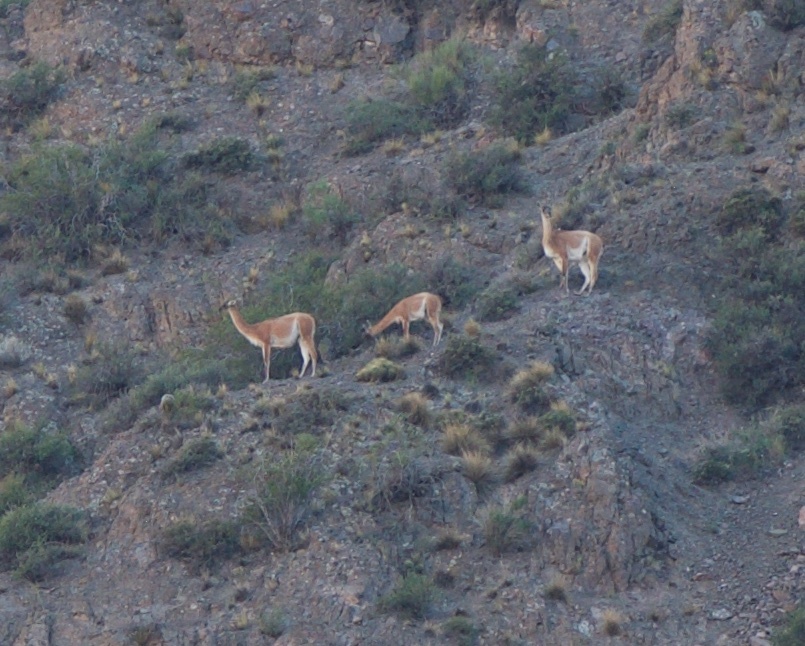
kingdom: Animalia
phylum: Chordata
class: Mammalia
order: Artiodactyla
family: Camelidae
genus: Lama
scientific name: Lama glama
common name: Llama
